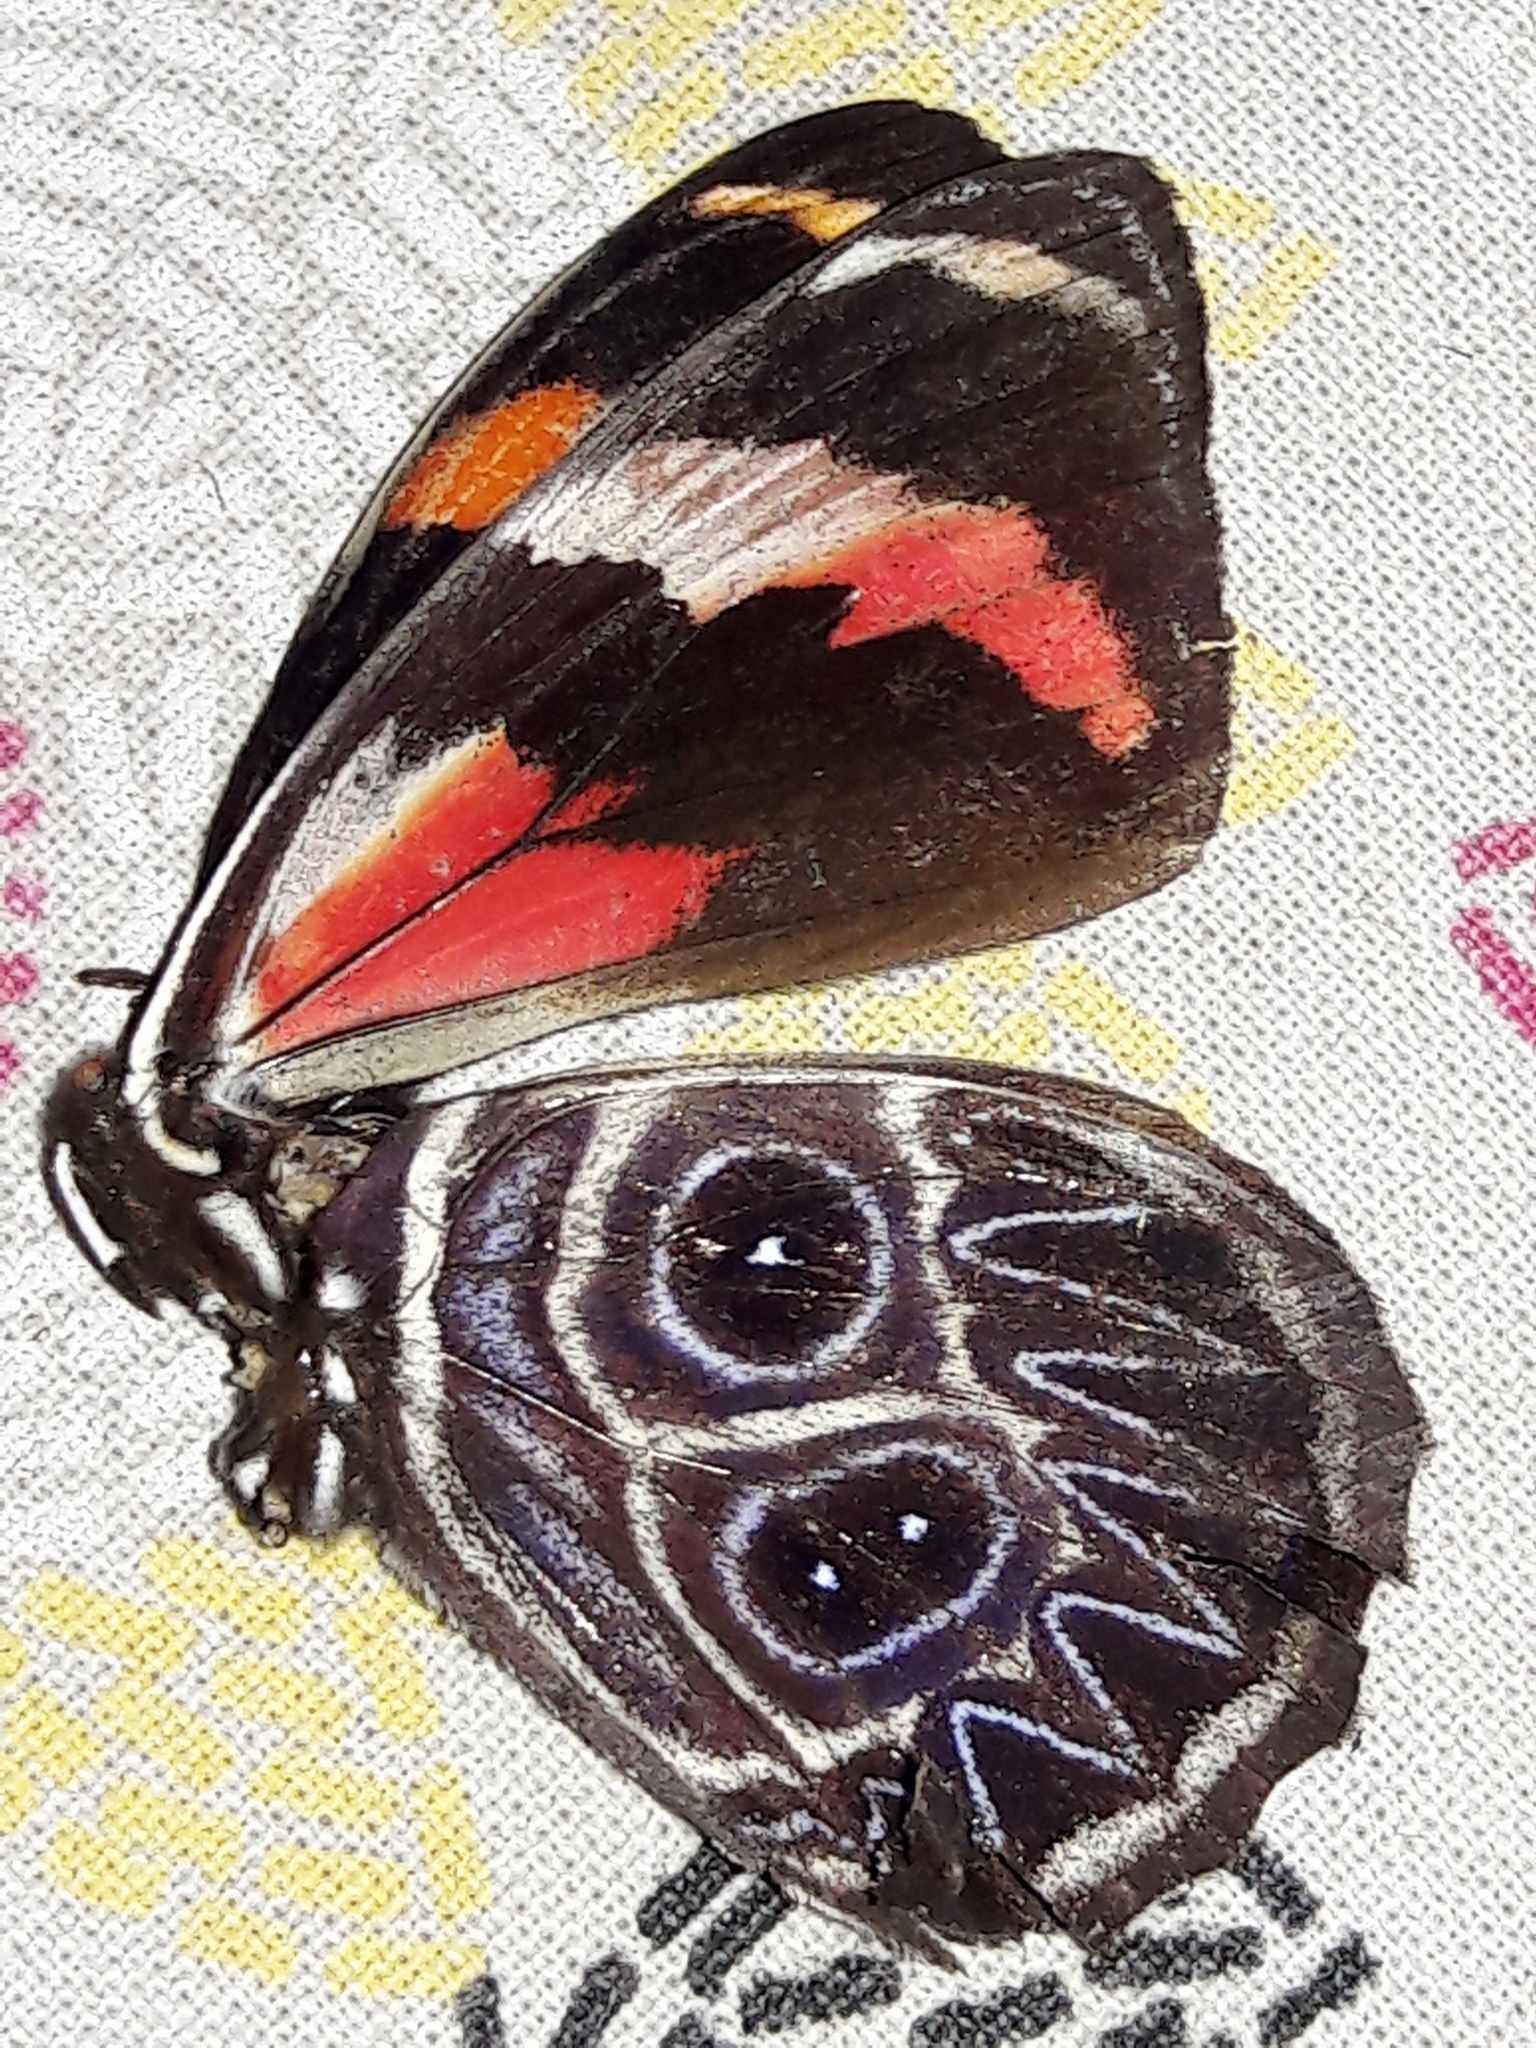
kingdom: Animalia
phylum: Arthropoda
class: Insecta
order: Lepidoptera
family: Nymphalidae
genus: Catagramma
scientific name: Catagramma Callicore sorana
